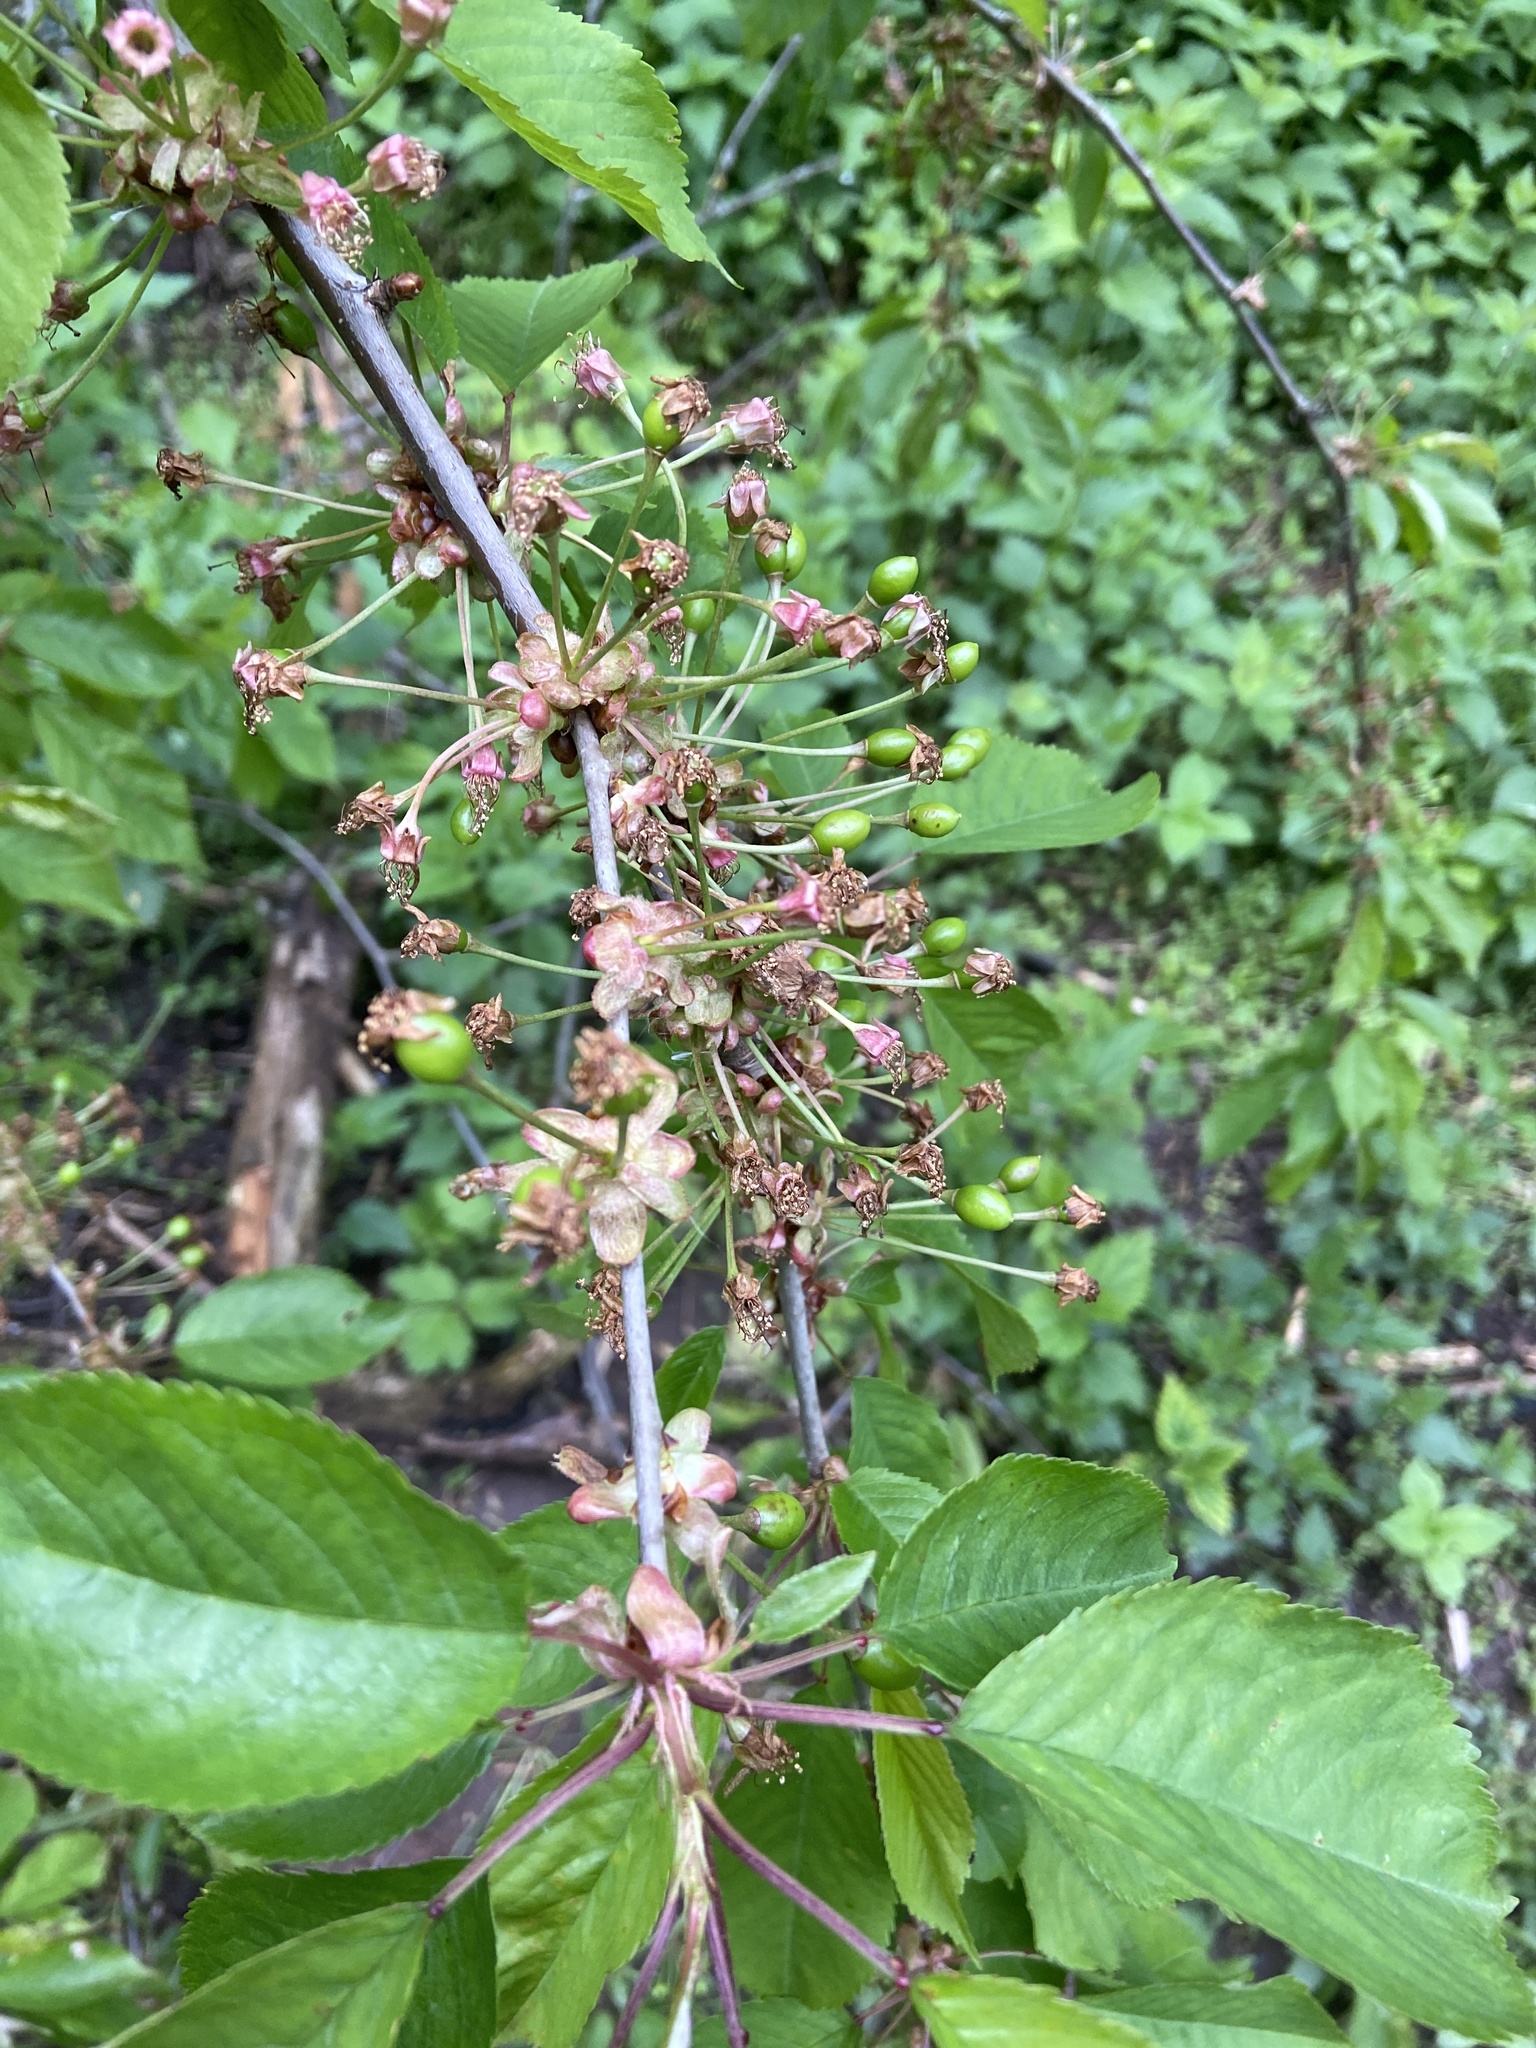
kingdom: Plantae
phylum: Tracheophyta
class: Magnoliopsida
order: Rosales
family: Rosaceae
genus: Prunus
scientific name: Prunus avium
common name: Sweet cherry
